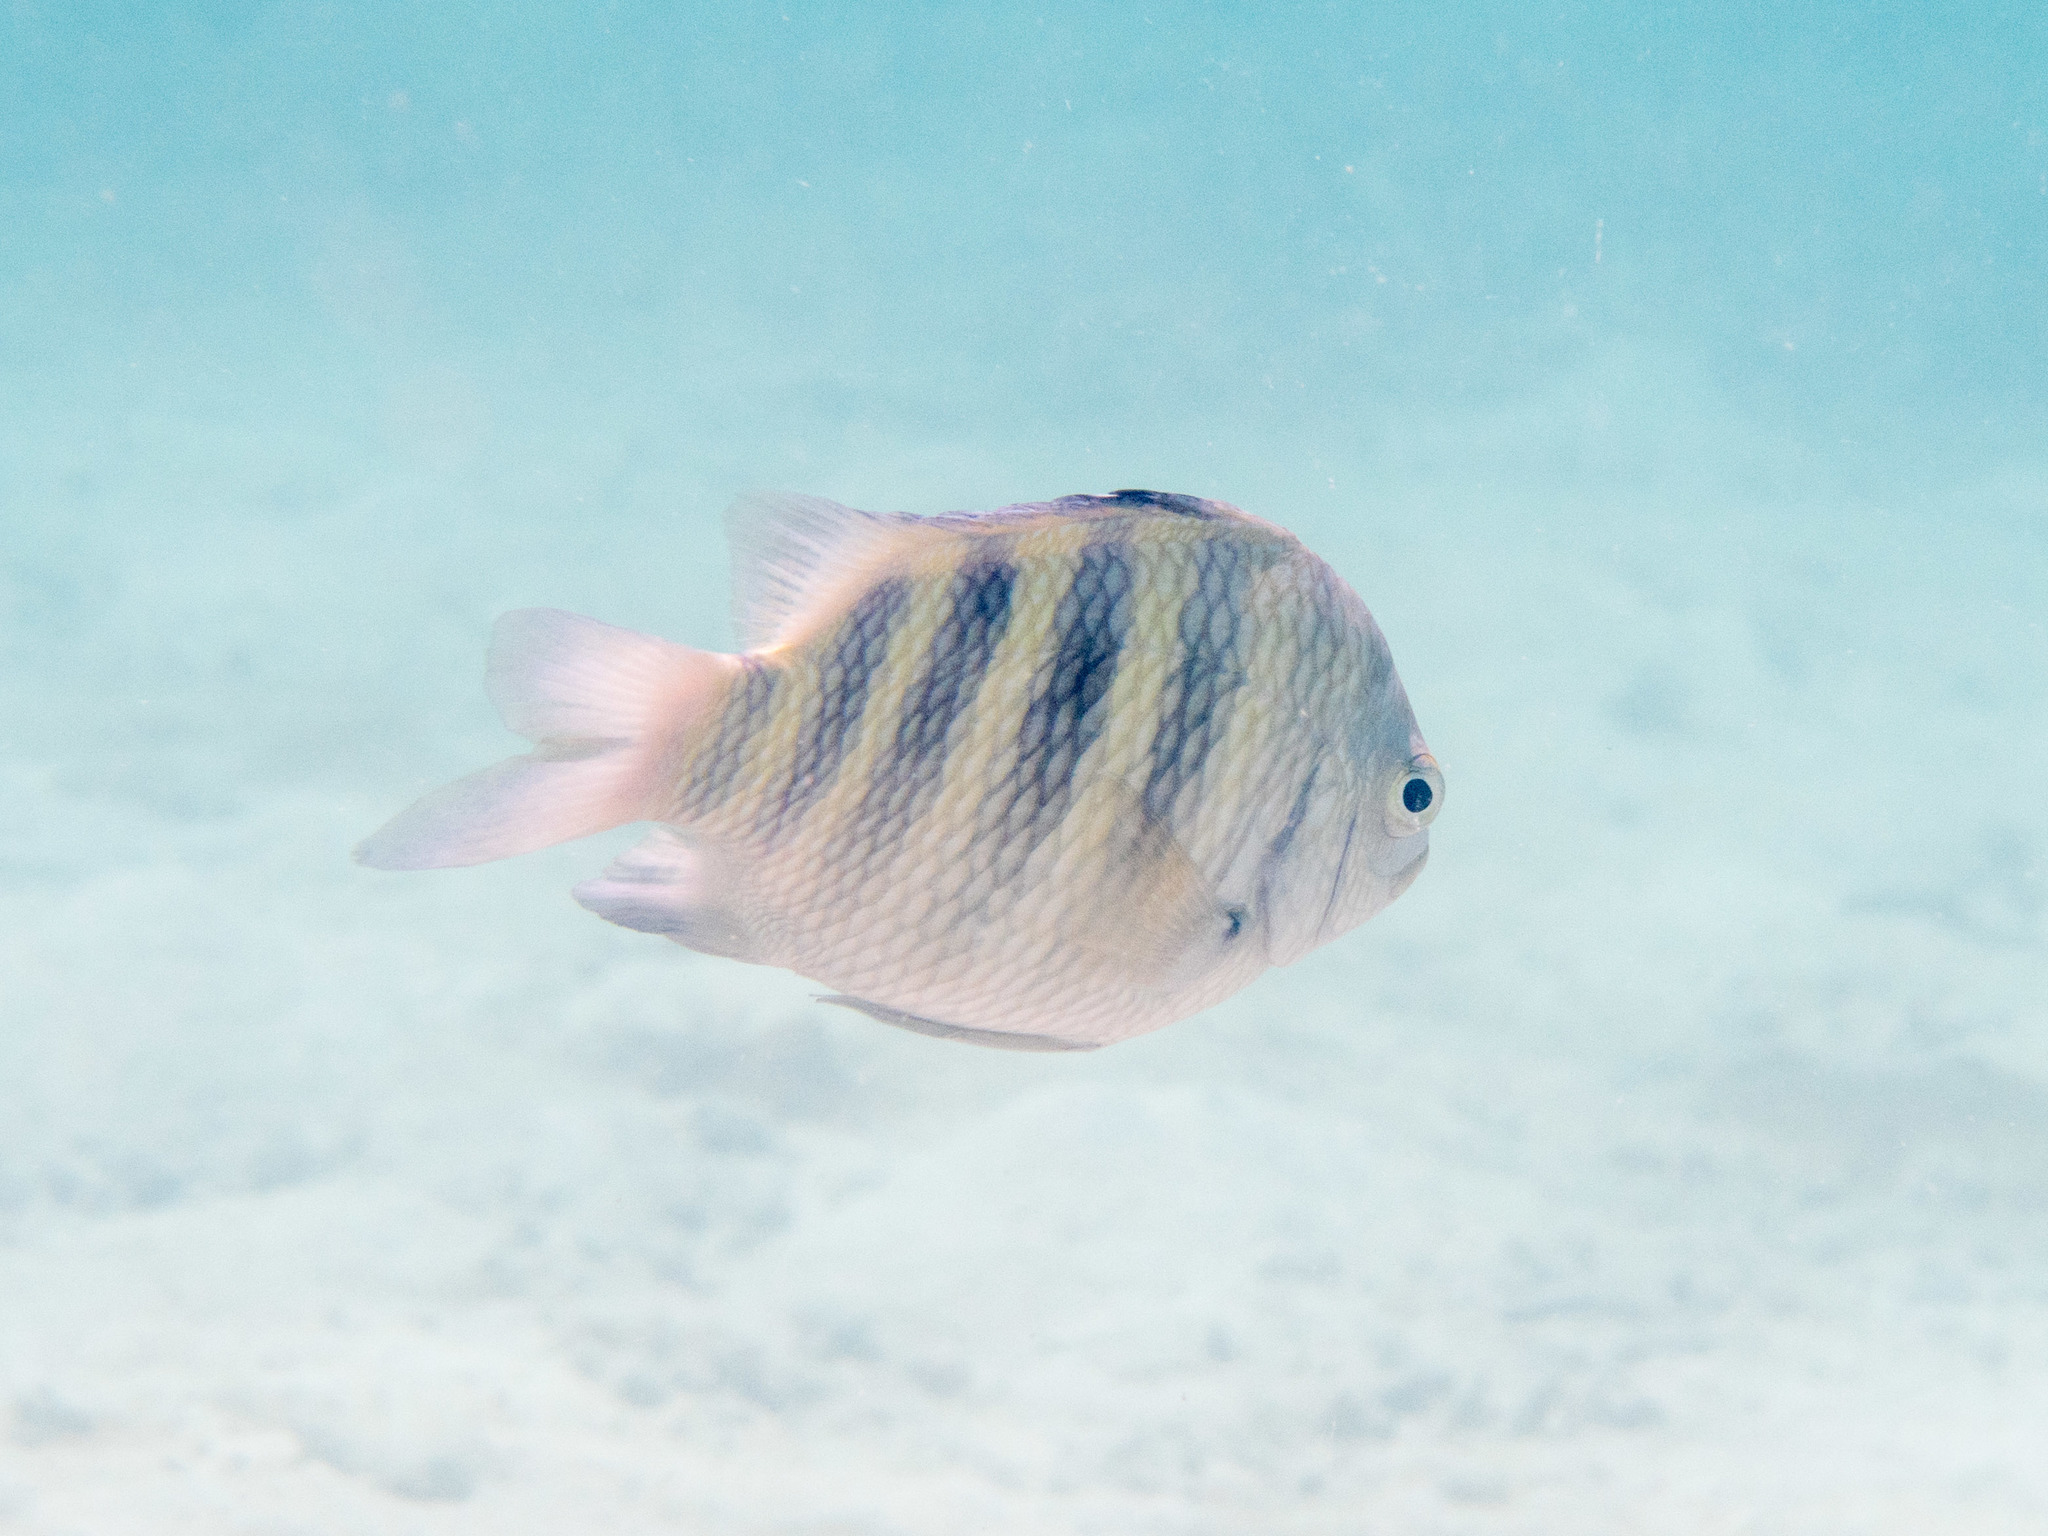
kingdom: Animalia
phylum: Chordata
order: Perciformes
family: Pomacentridae
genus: Abudefduf
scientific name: Abudefduf septemfasciatus
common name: Banded sergeant
